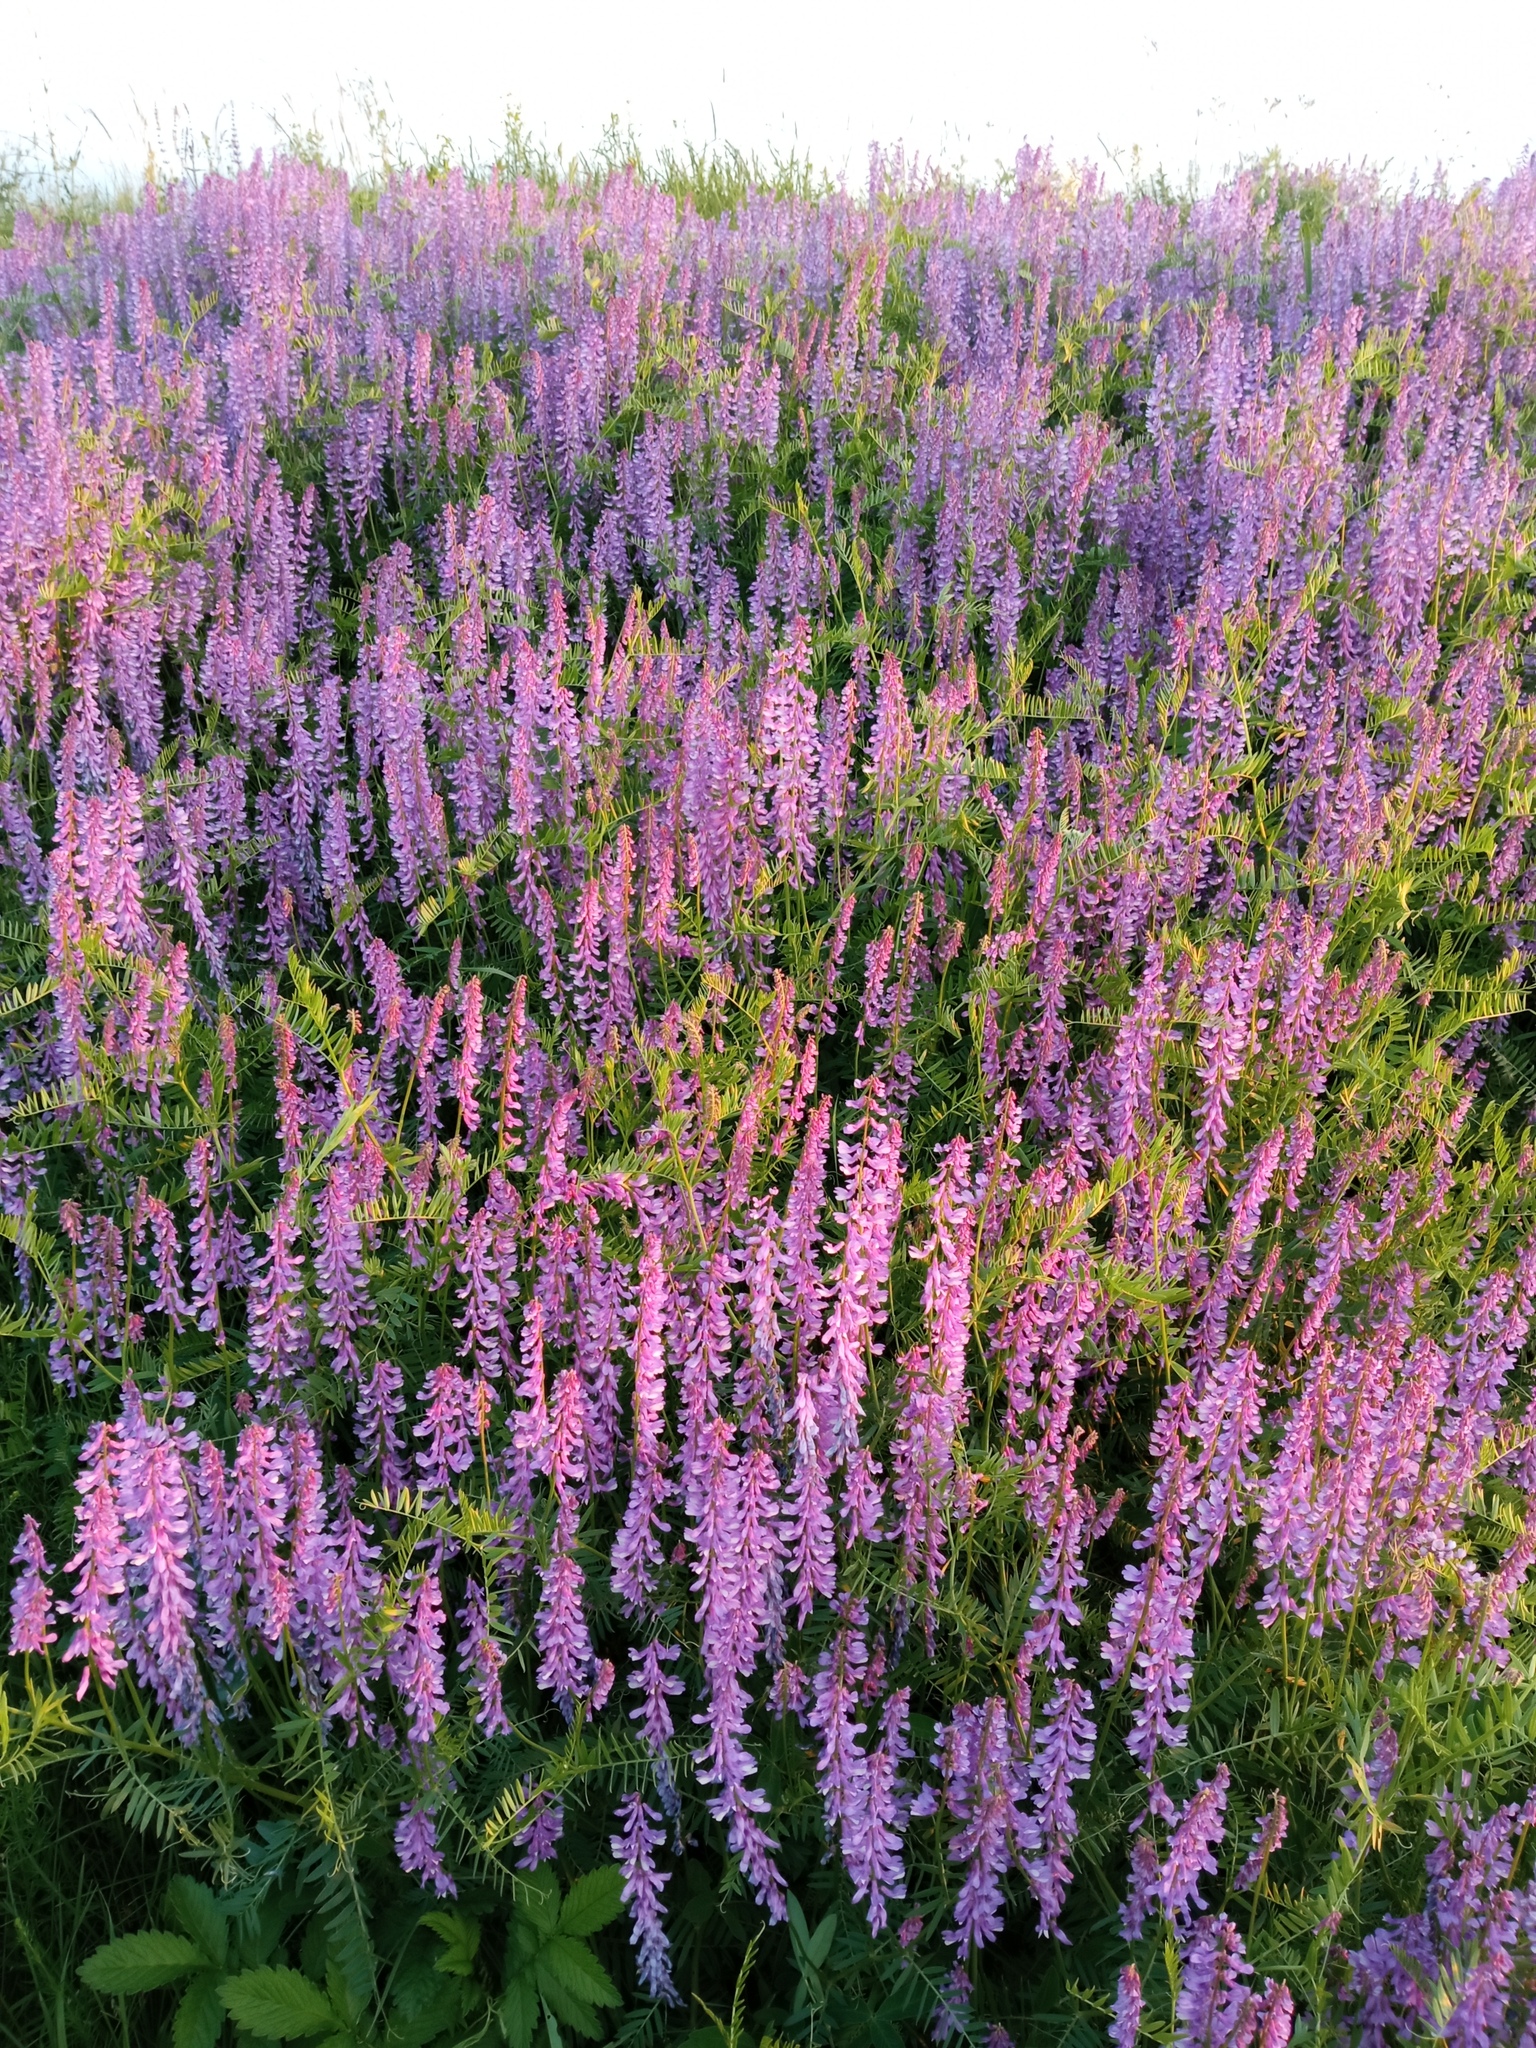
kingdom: Plantae
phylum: Tracheophyta
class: Magnoliopsida
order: Fabales
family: Fabaceae
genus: Vicia
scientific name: Vicia tenuifolia
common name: Fine-leaved vetch
